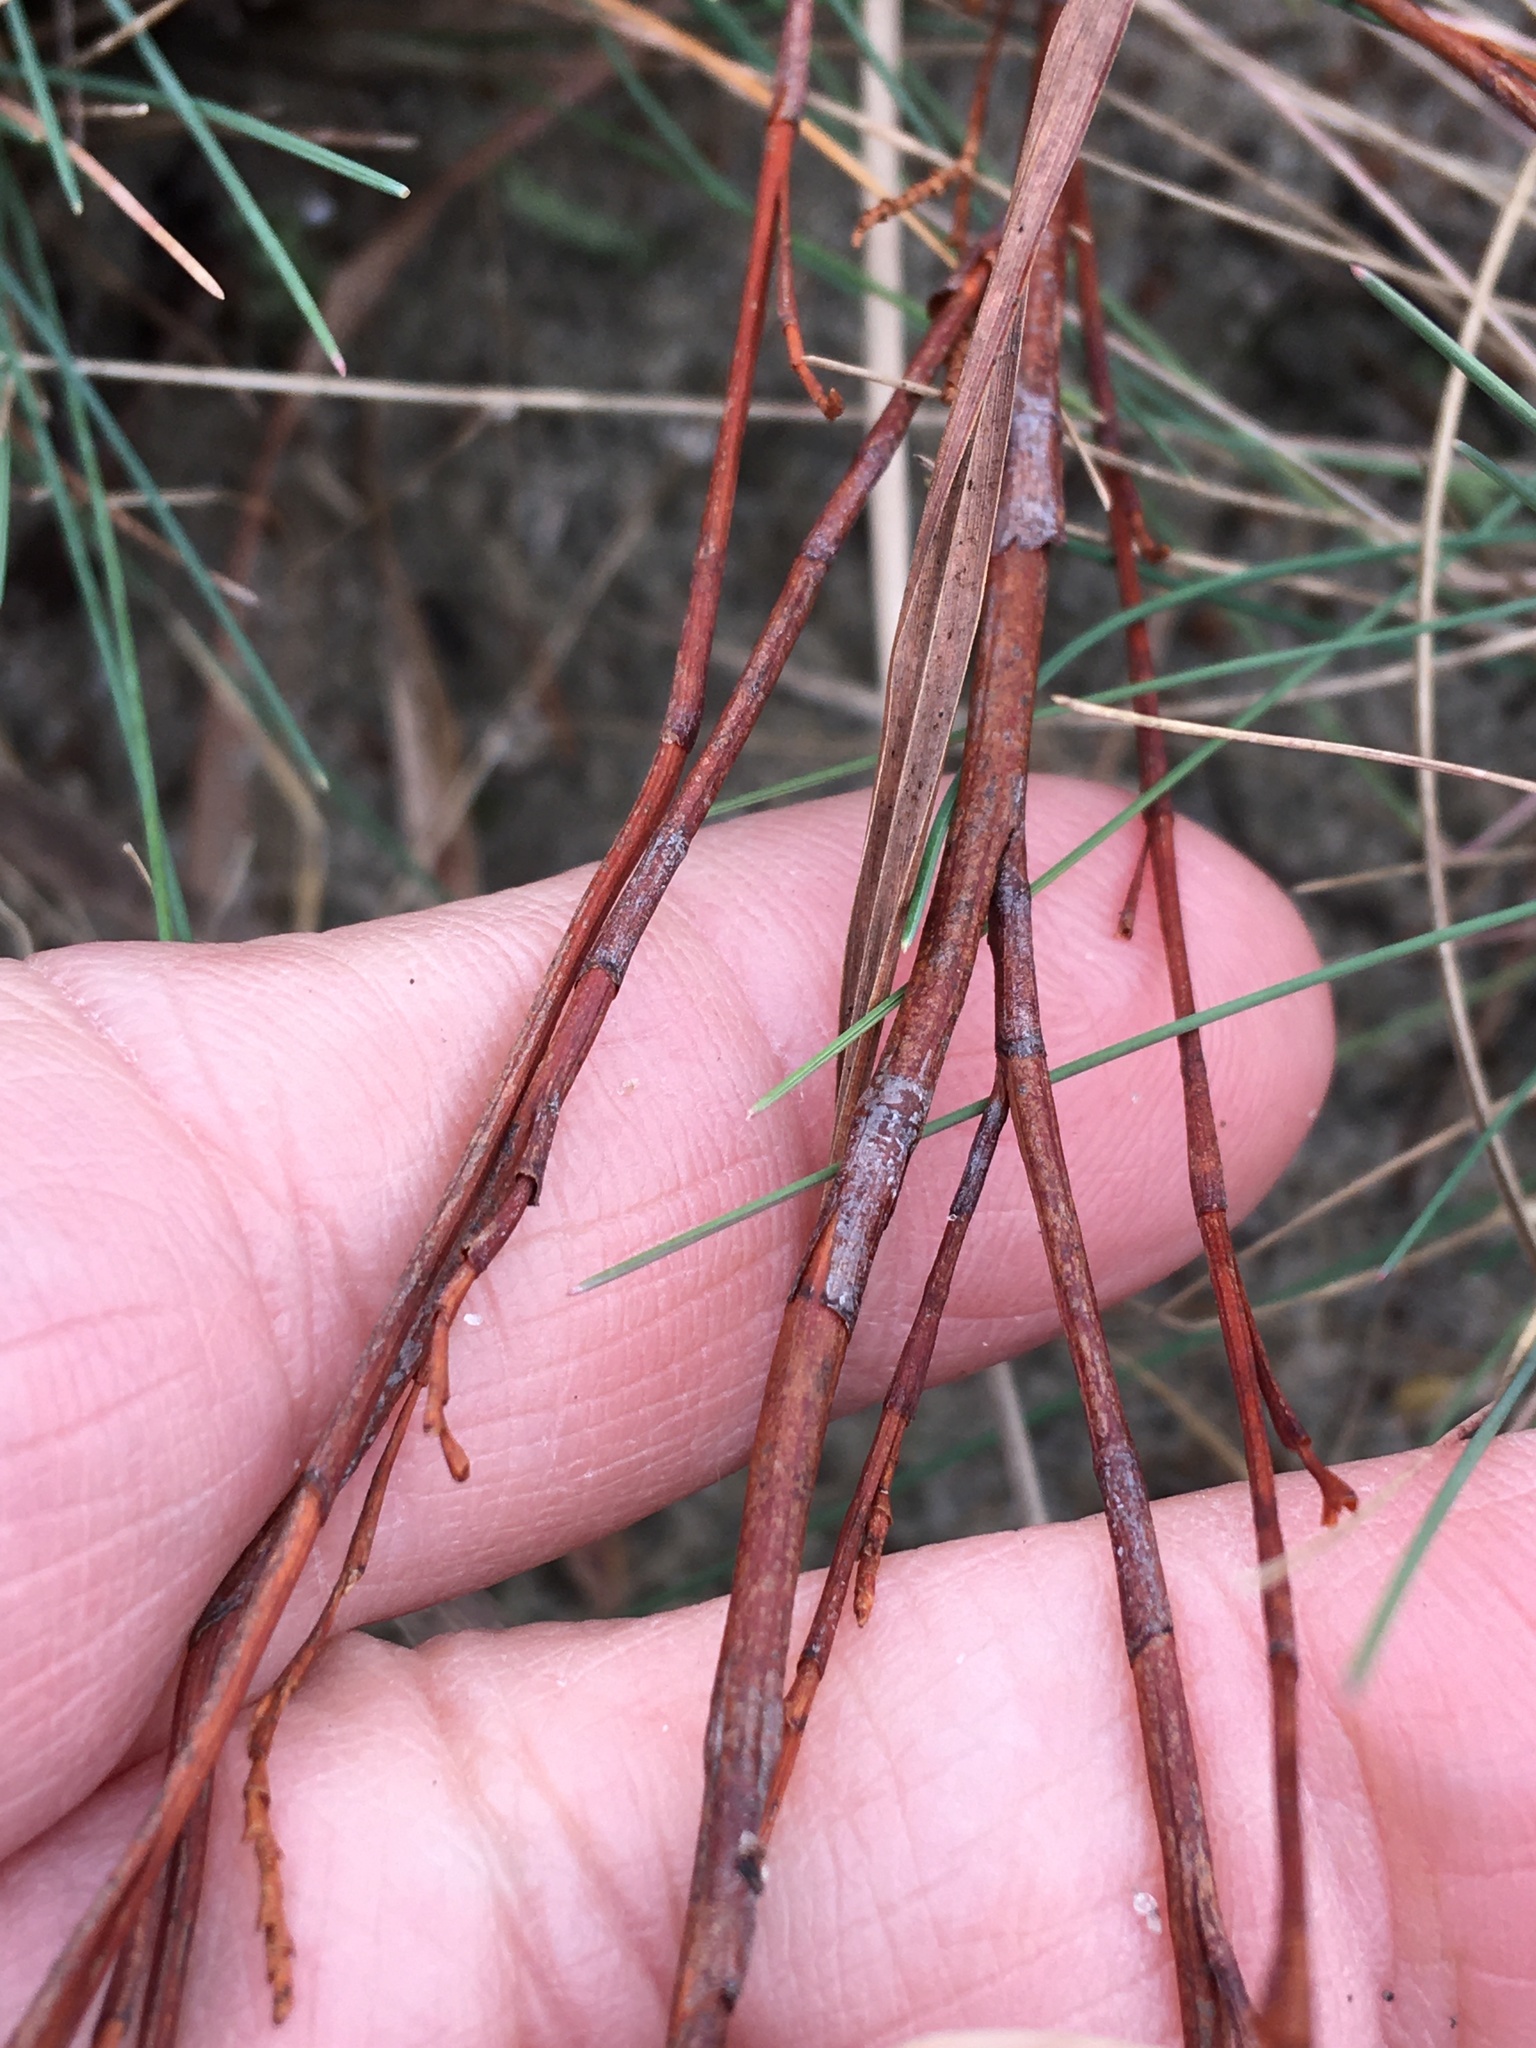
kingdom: Plantae
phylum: Tracheophyta
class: Magnoliopsida
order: Caryophyllales
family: Polygonaceae
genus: Polygonella
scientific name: Polygonella articulata
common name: Coastal jointweed
